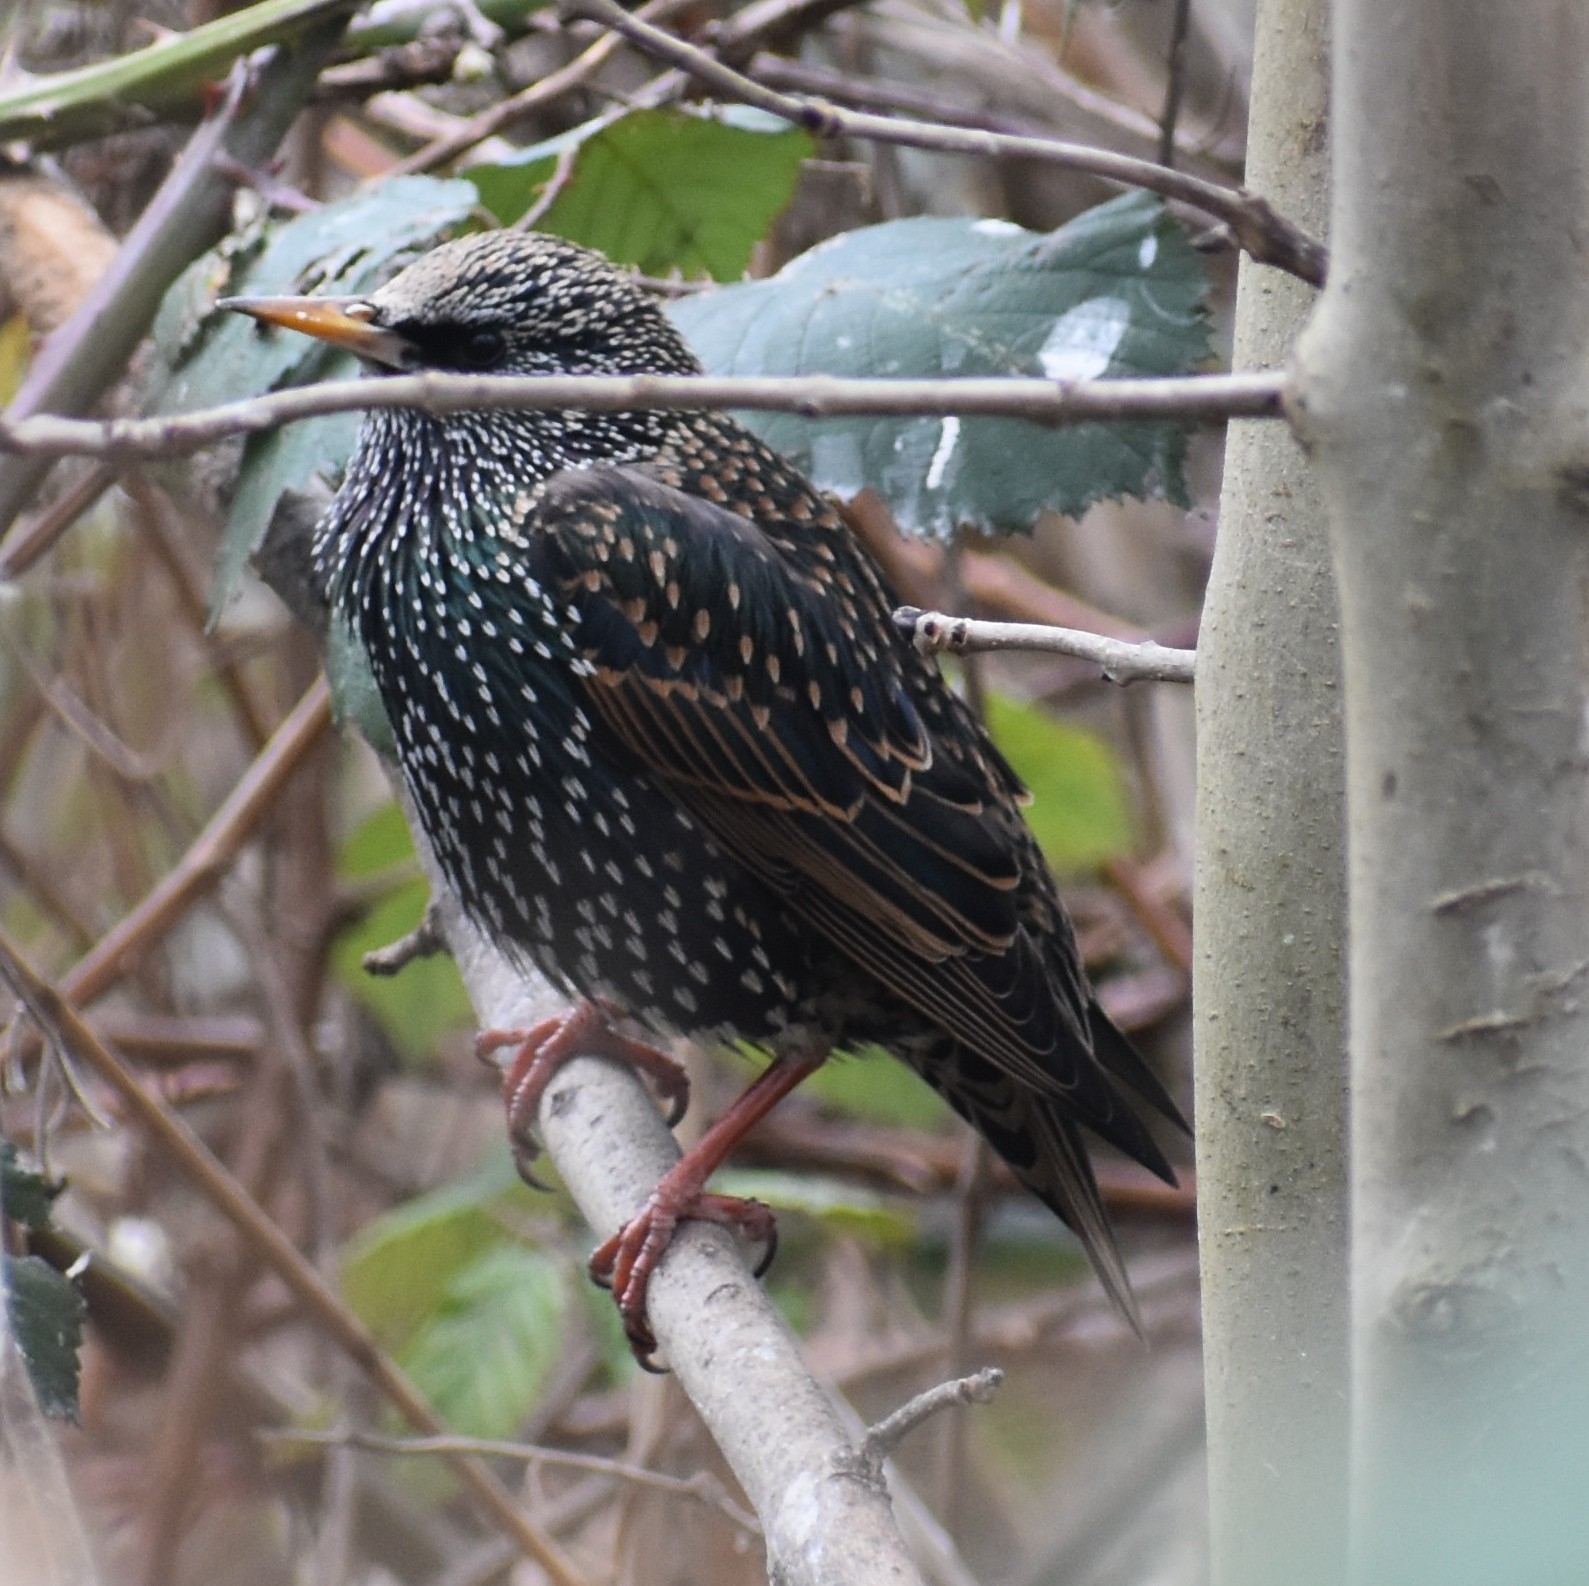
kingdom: Animalia
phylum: Chordata
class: Aves
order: Passeriformes
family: Sturnidae
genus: Sturnus
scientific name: Sturnus vulgaris
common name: Common starling
